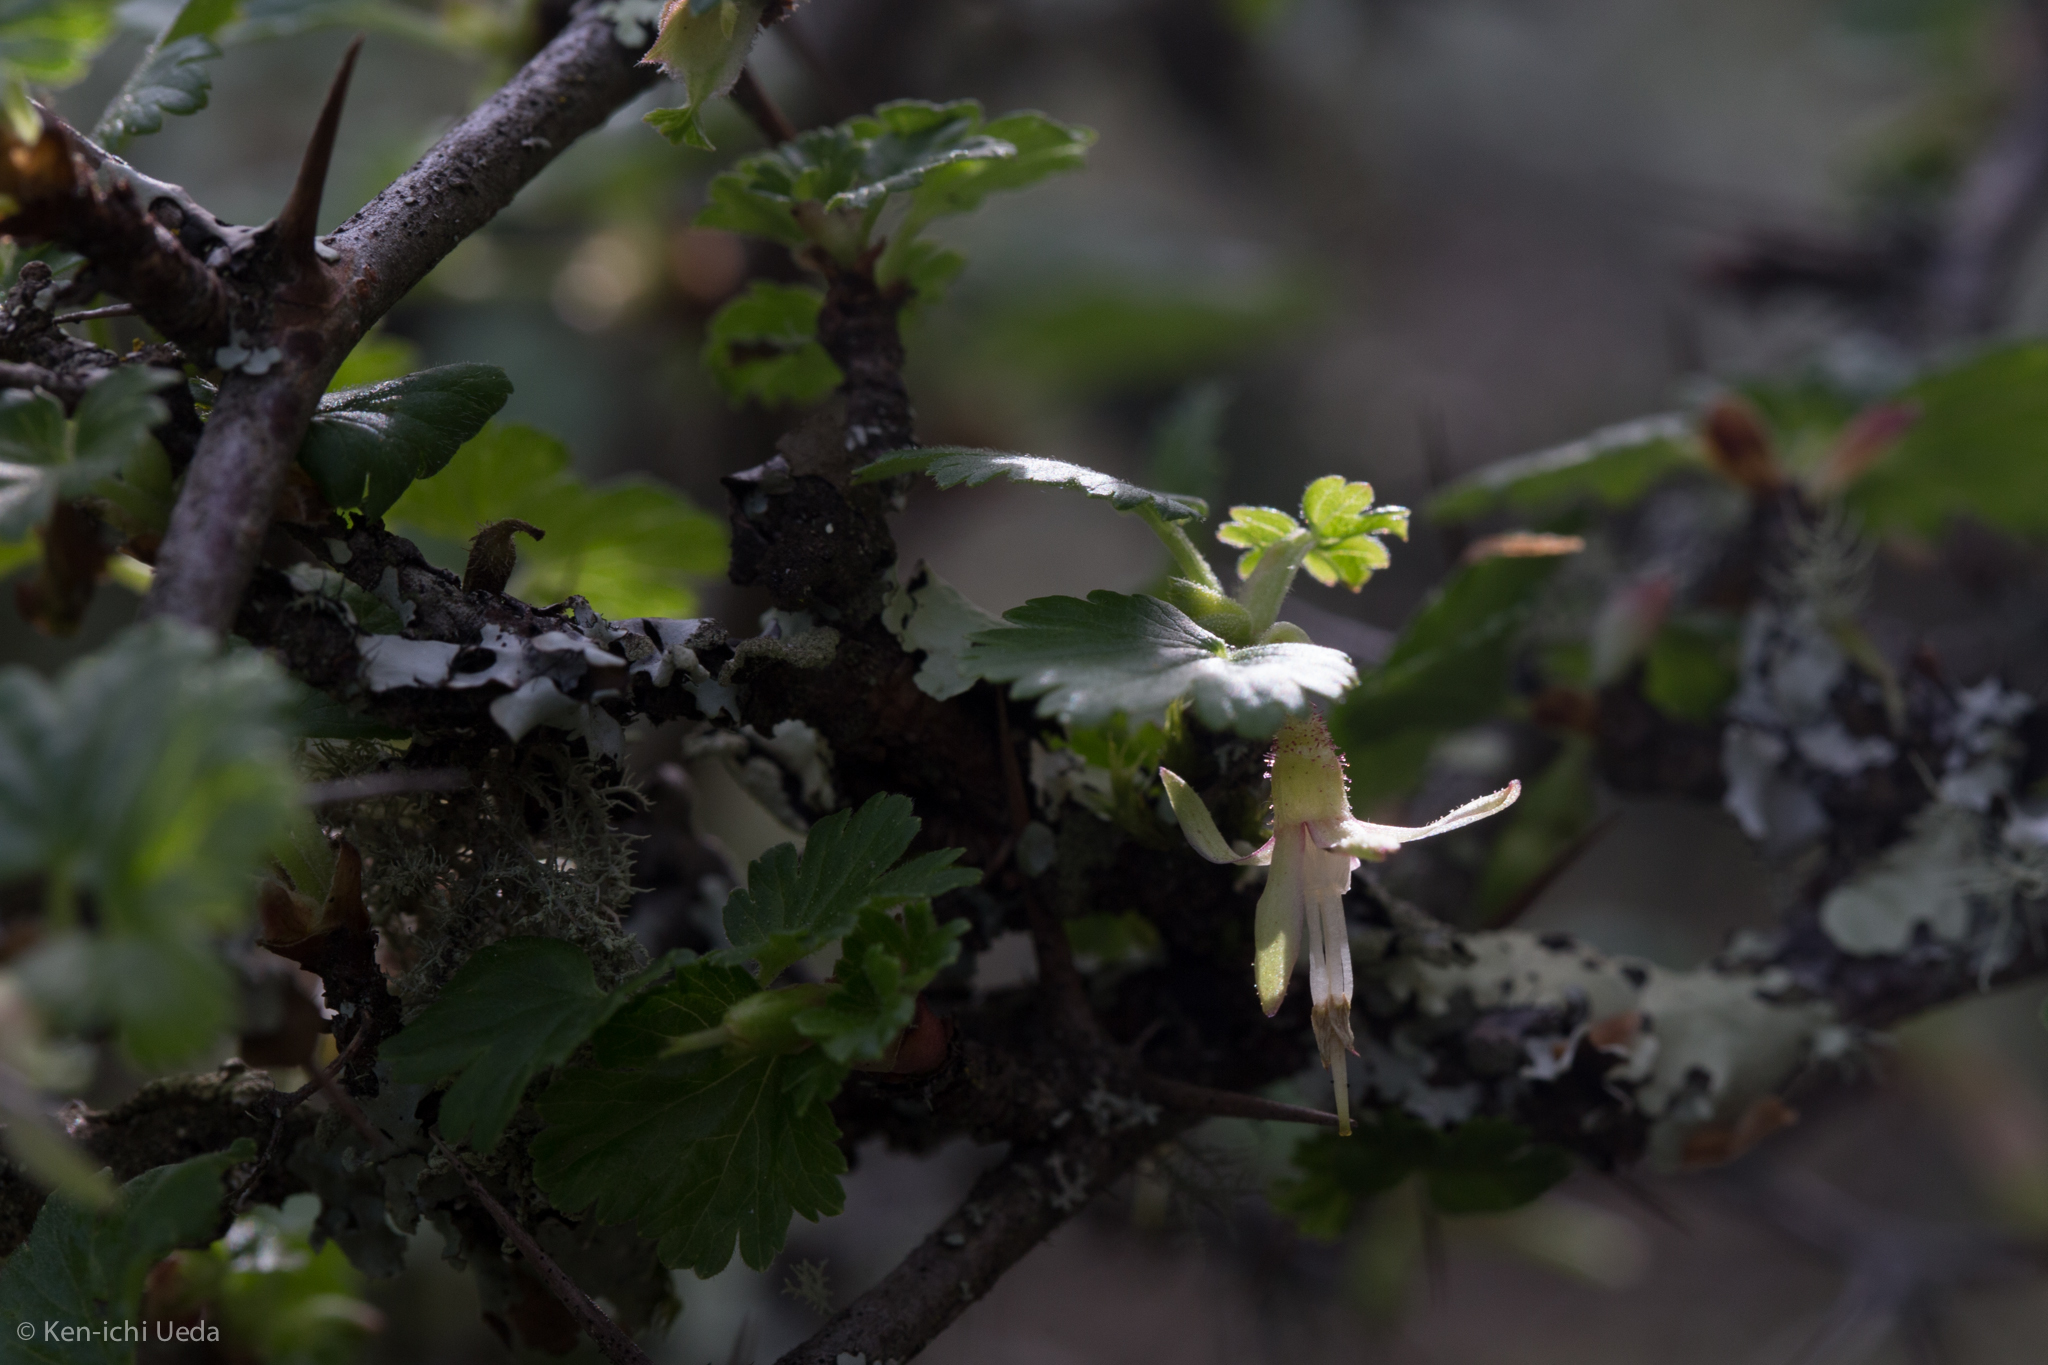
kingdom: Plantae
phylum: Tracheophyta
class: Magnoliopsida
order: Saxifragales
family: Grossulariaceae
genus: Ribes
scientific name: Ribes californicum
